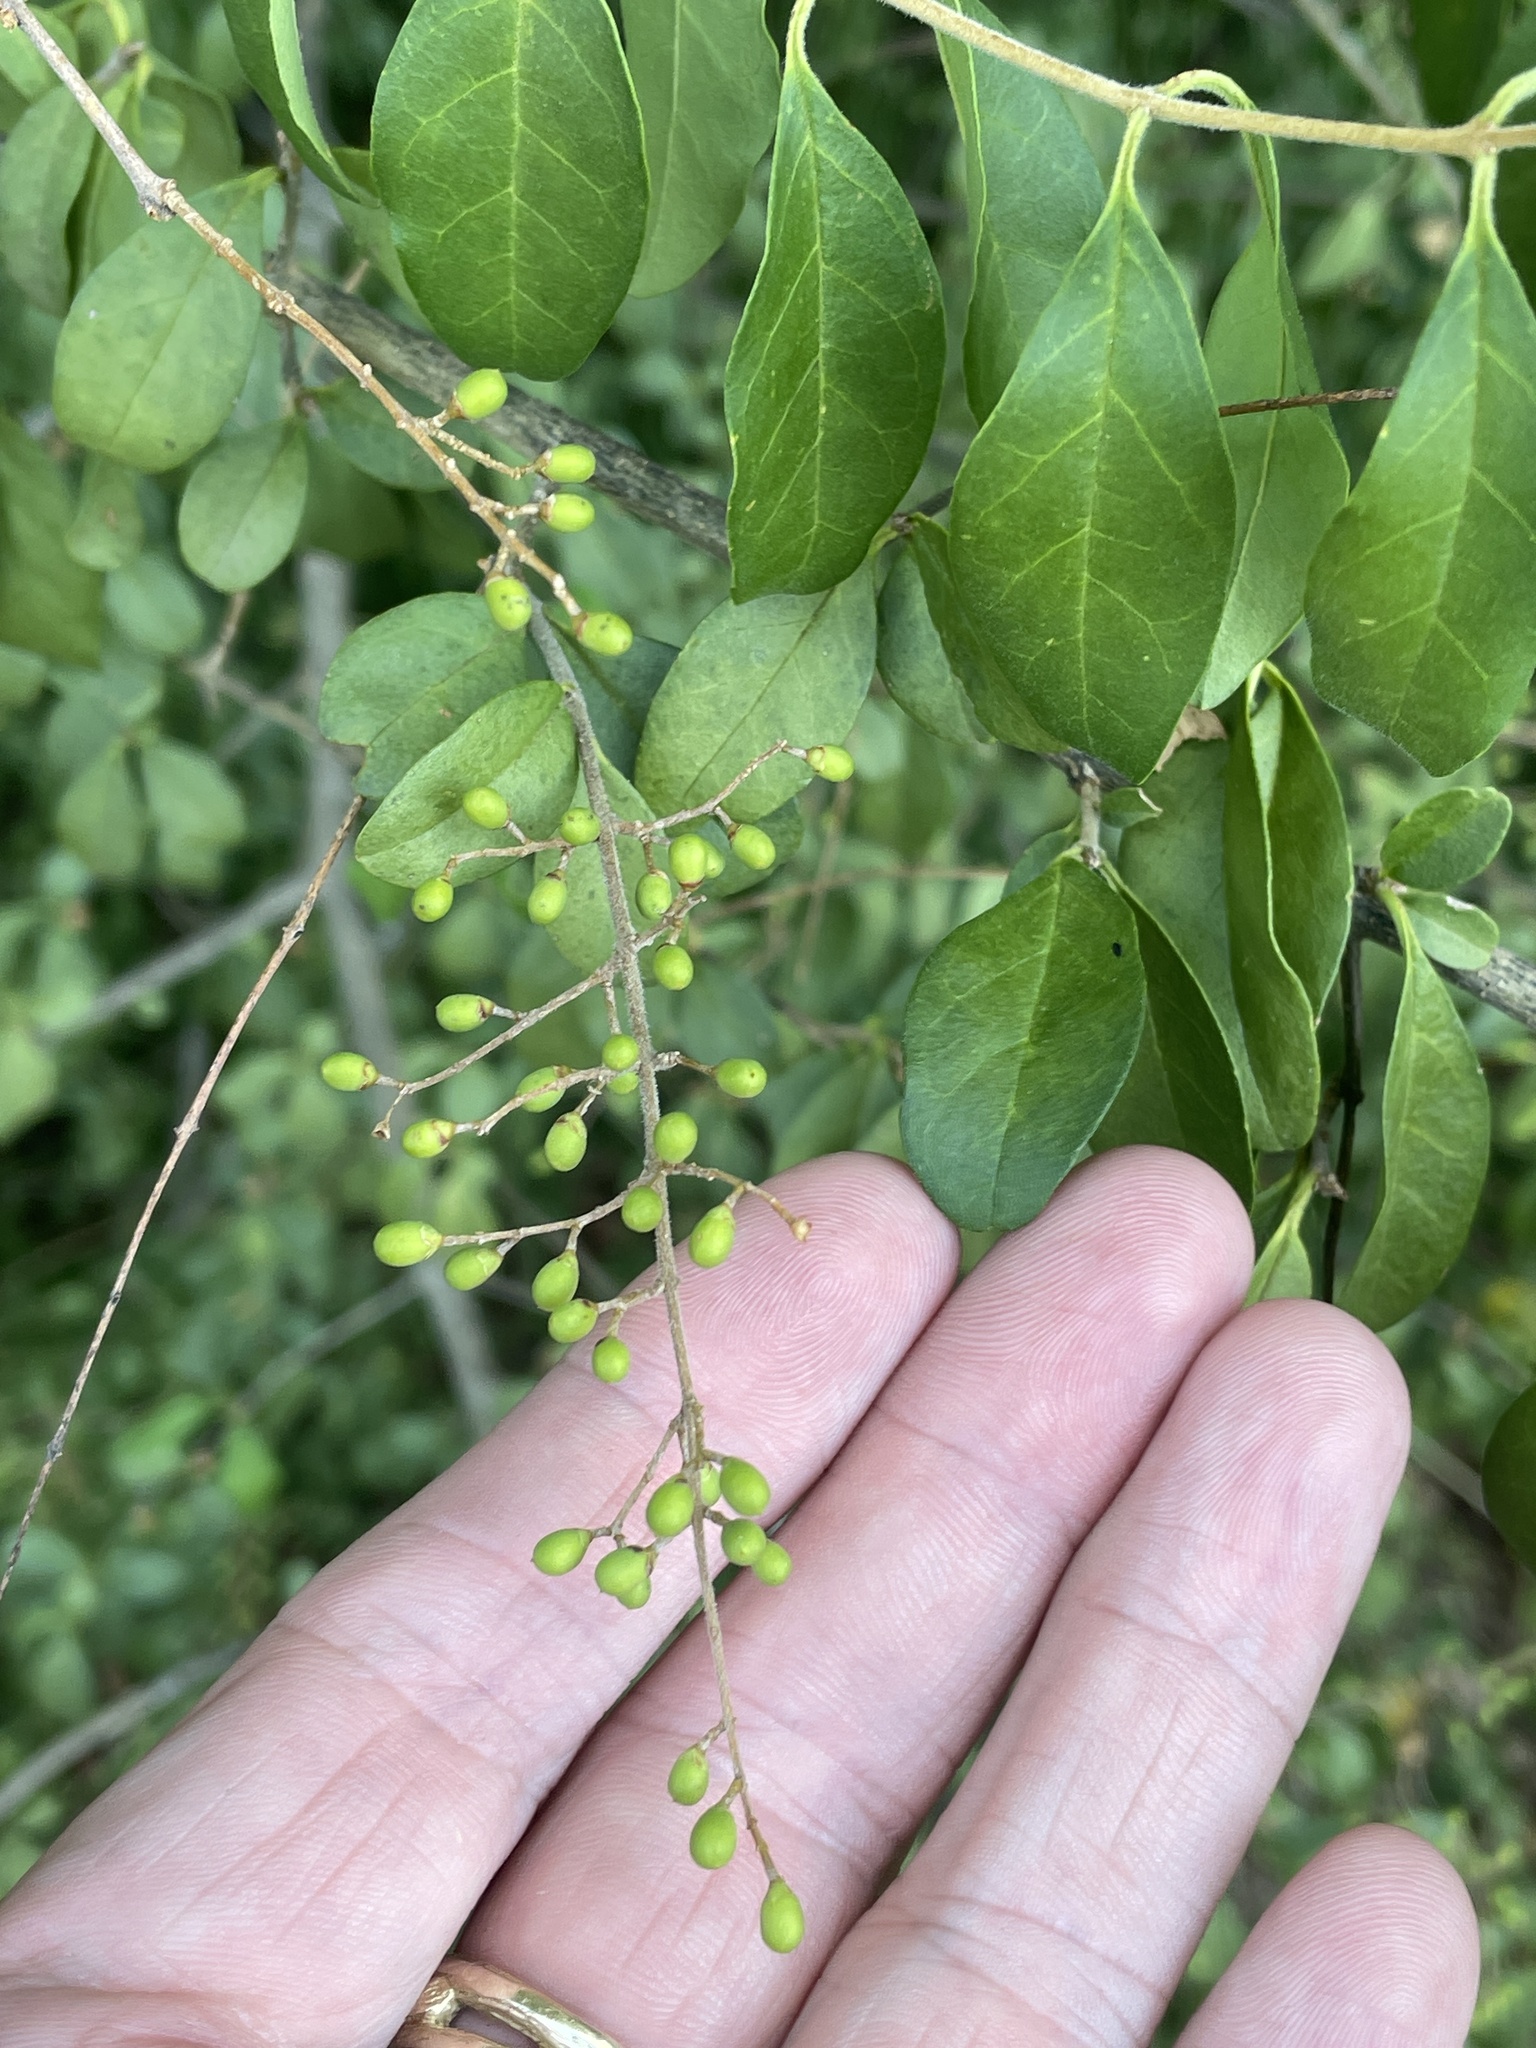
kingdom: Plantae
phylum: Tracheophyta
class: Magnoliopsida
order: Lamiales
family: Oleaceae
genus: Ligustrum
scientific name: Ligustrum sinense
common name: Chinese privet
